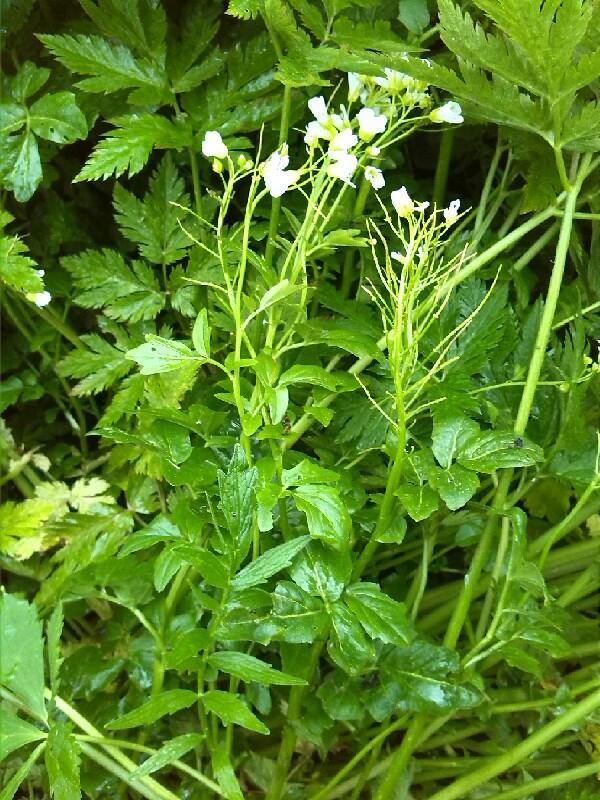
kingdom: Plantae
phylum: Tracheophyta
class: Magnoliopsida
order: Brassicales
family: Brassicaceae
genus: Cardamine
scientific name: Cardamine amara
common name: Large bitter-cress
